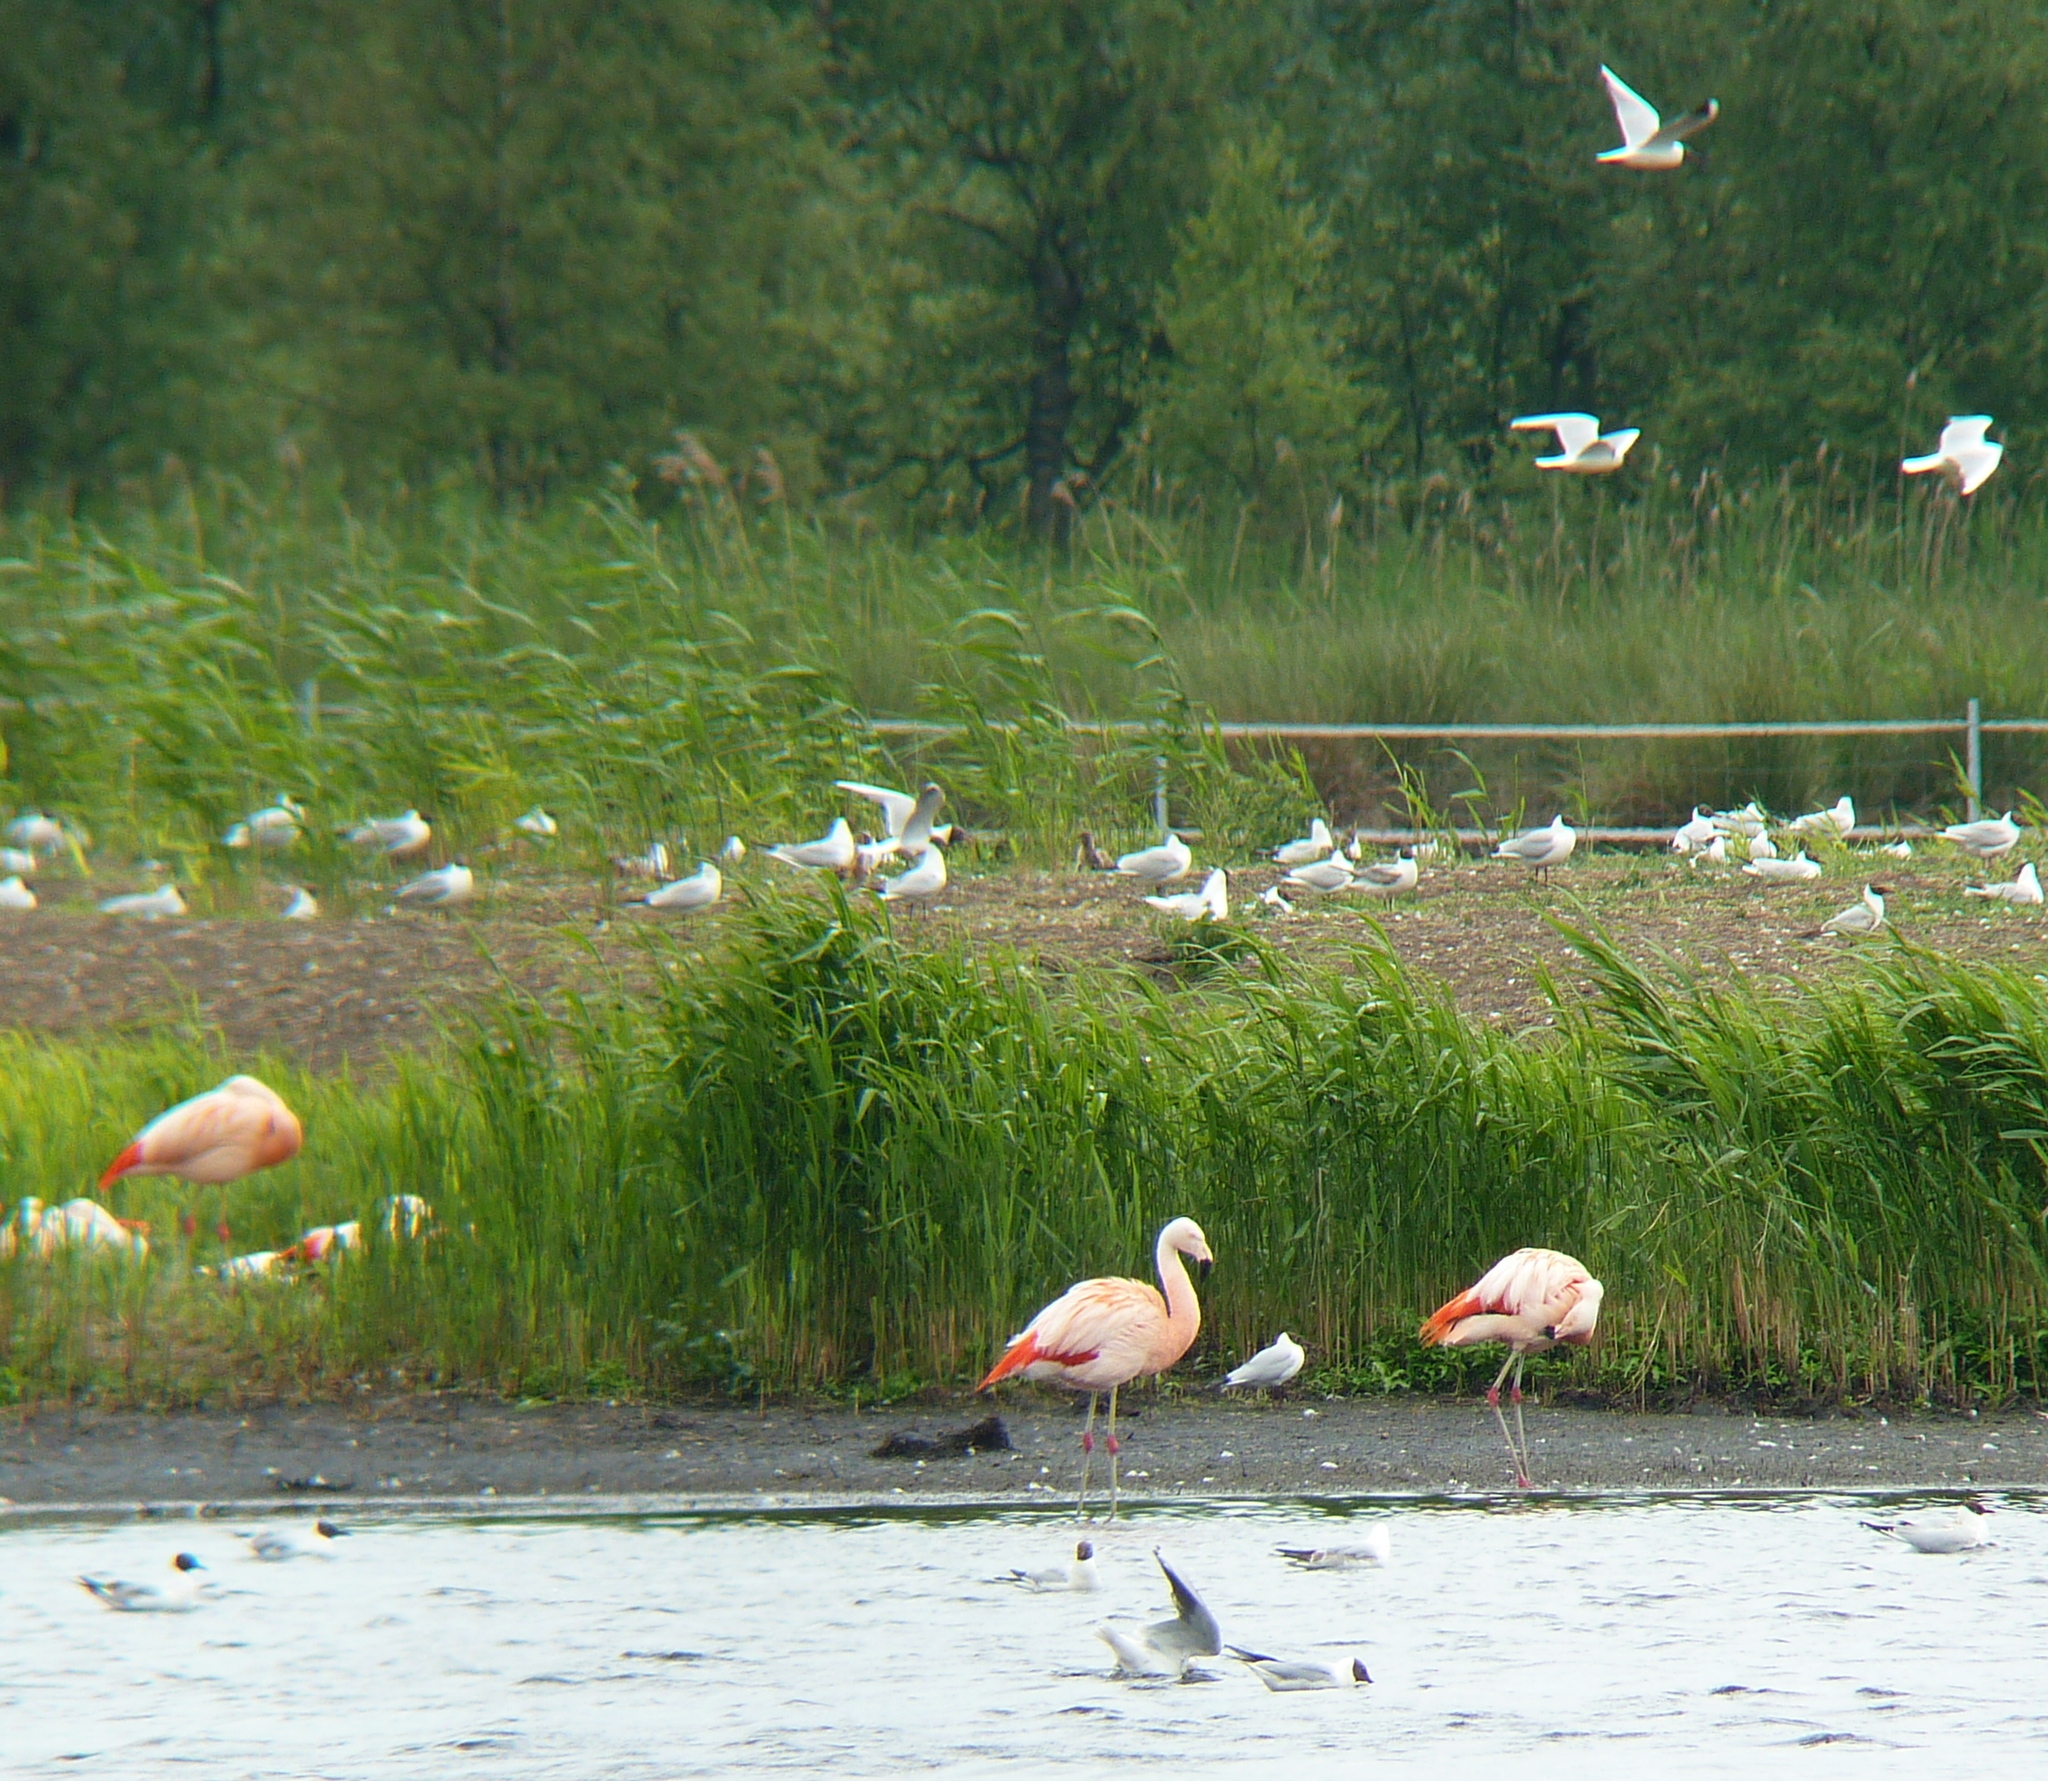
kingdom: Animalia
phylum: Chordata
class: Aves
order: Phoenicopteriformes
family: Phoenicopteridae
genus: Phoenicopterus
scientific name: Phoenicopterus chilensis
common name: Chilean flamingo
